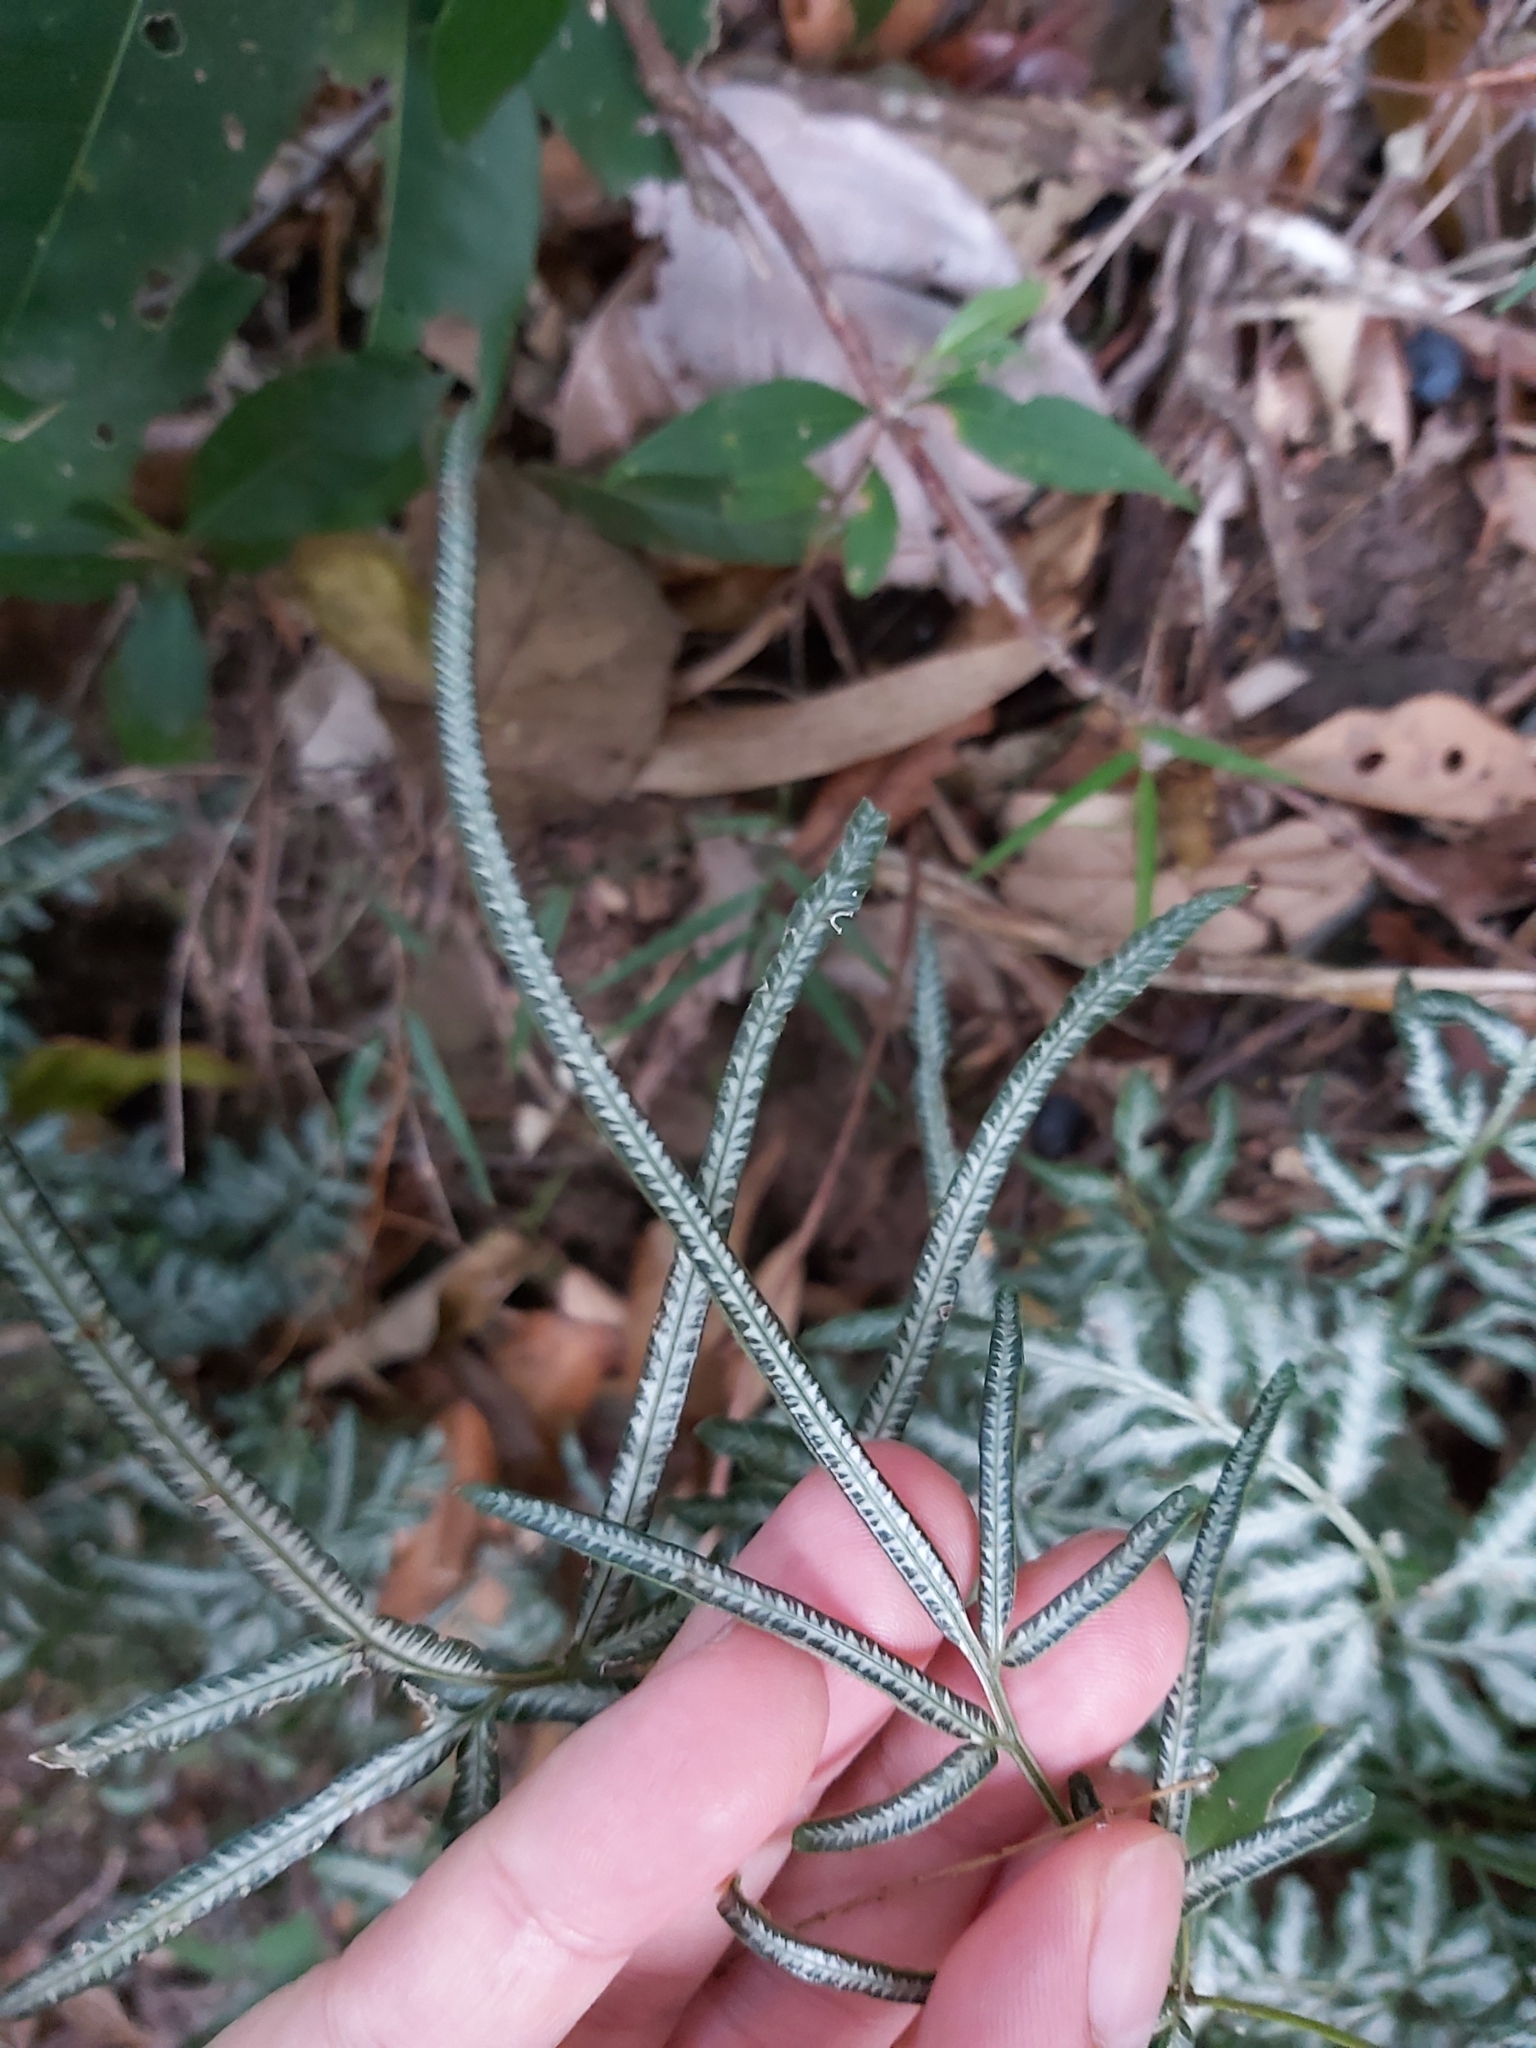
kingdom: Plantae
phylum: Tracheophyta
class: Polypodiopsida
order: Polypodiales
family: Pteridaceae
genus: Pteris
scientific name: Pteris ensiformis
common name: Sword brake
